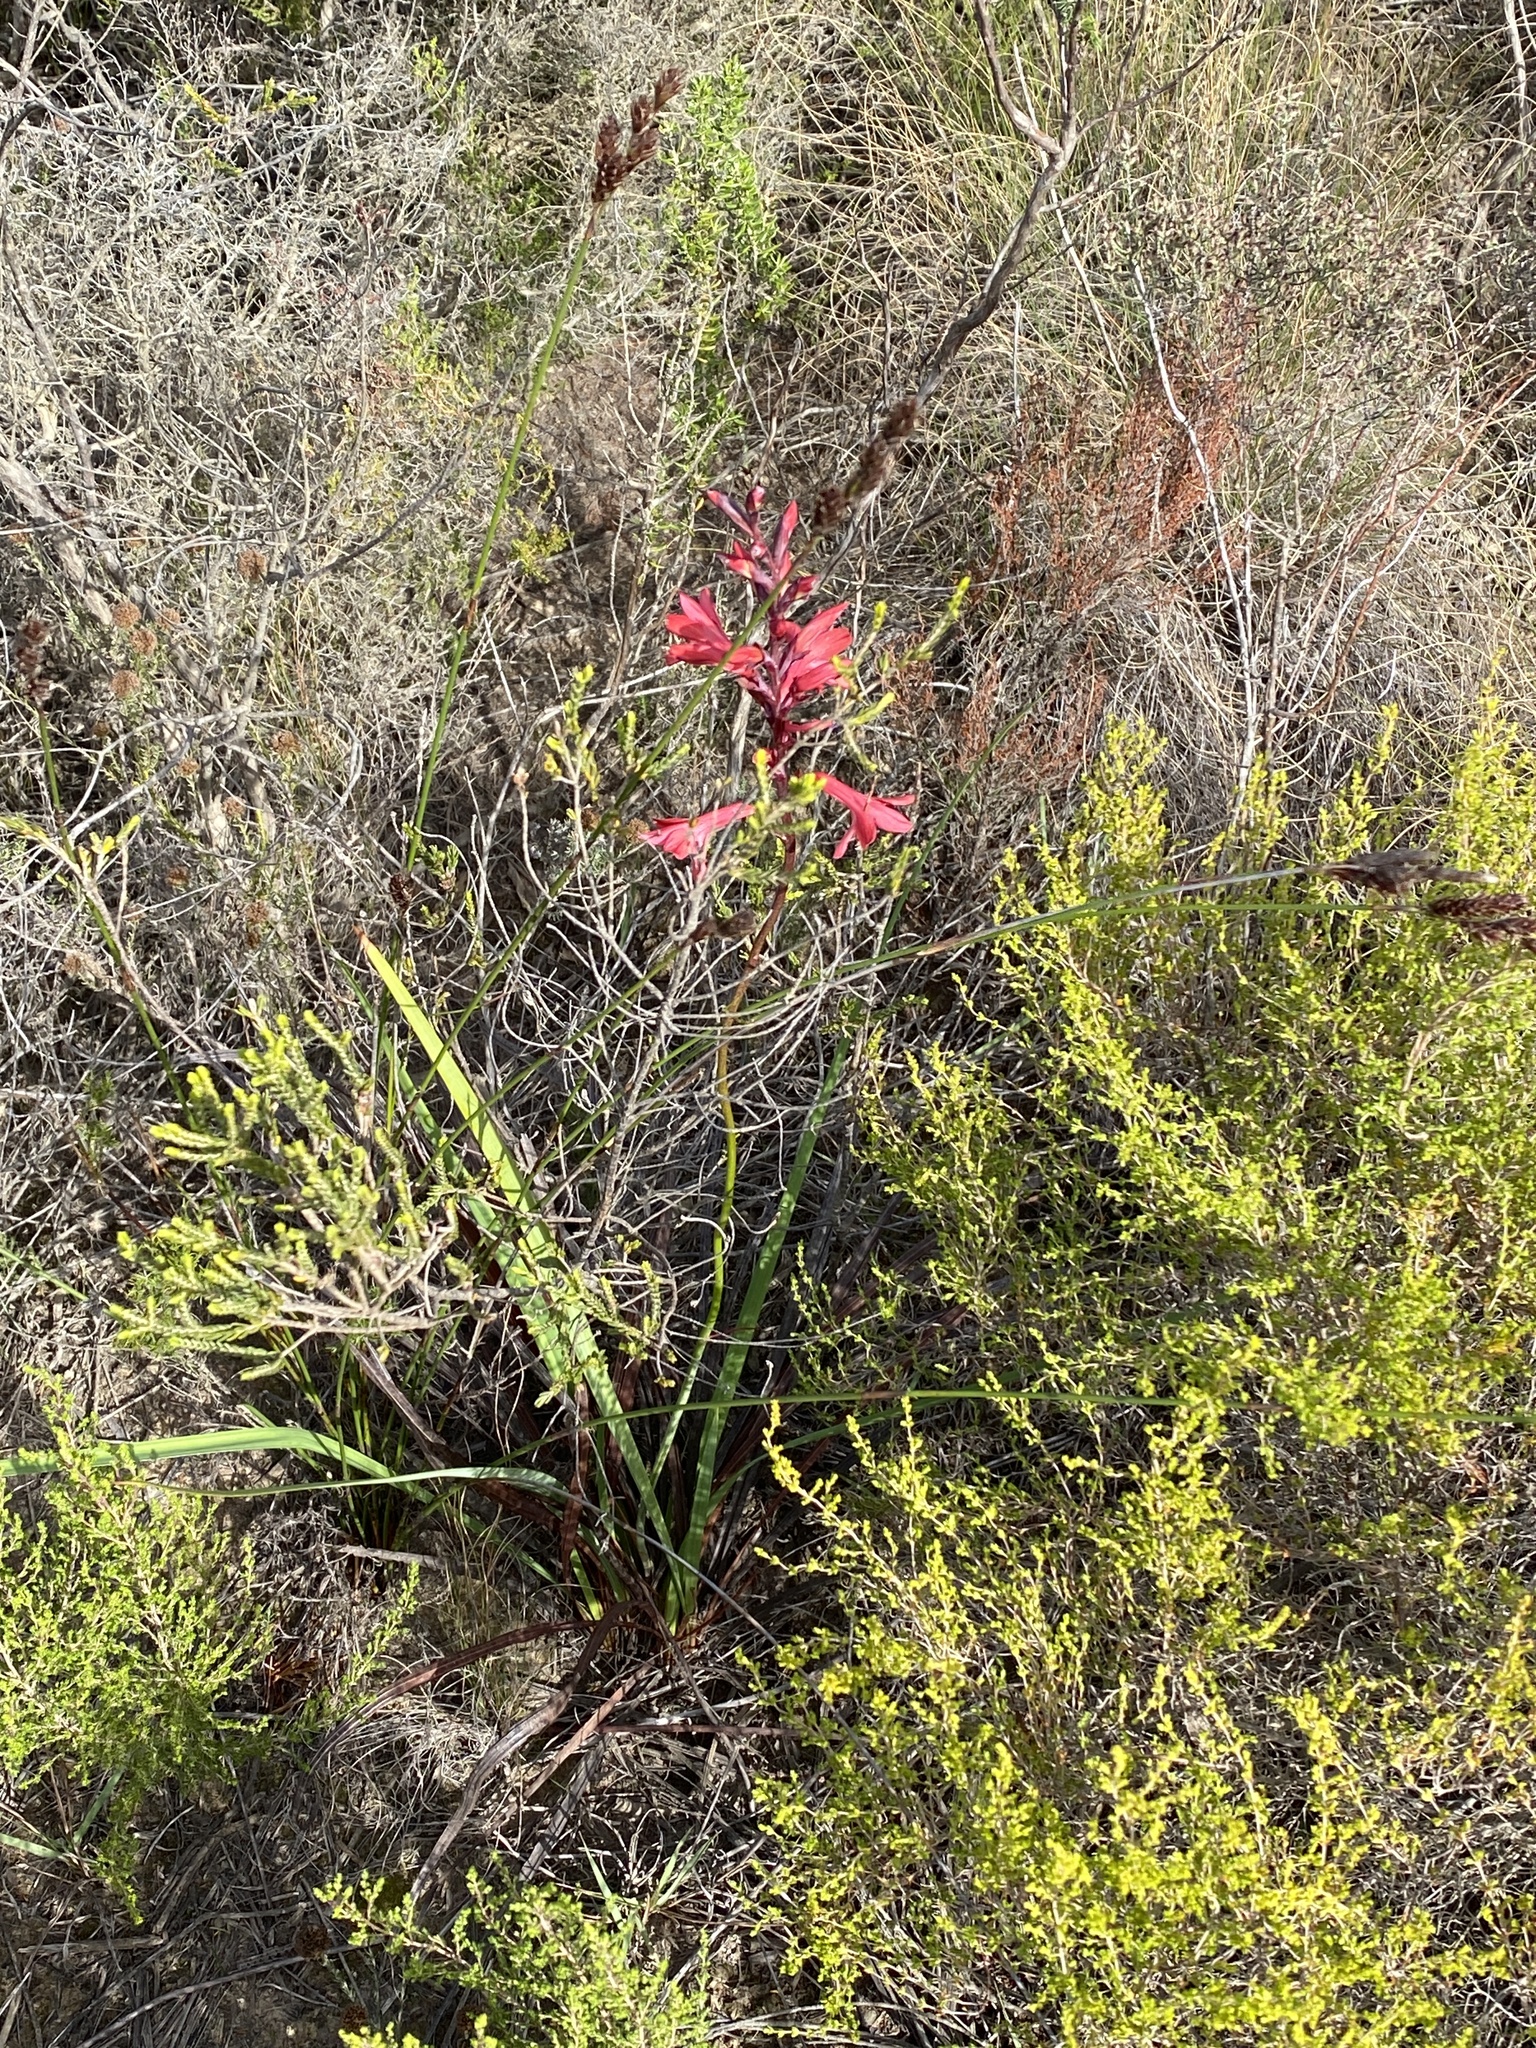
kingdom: Plantae
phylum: Tracheophyta
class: Liliopsida
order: Asparagales
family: Iridaceae
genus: Tritoniopsis
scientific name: Tritoniopsis pulchra
